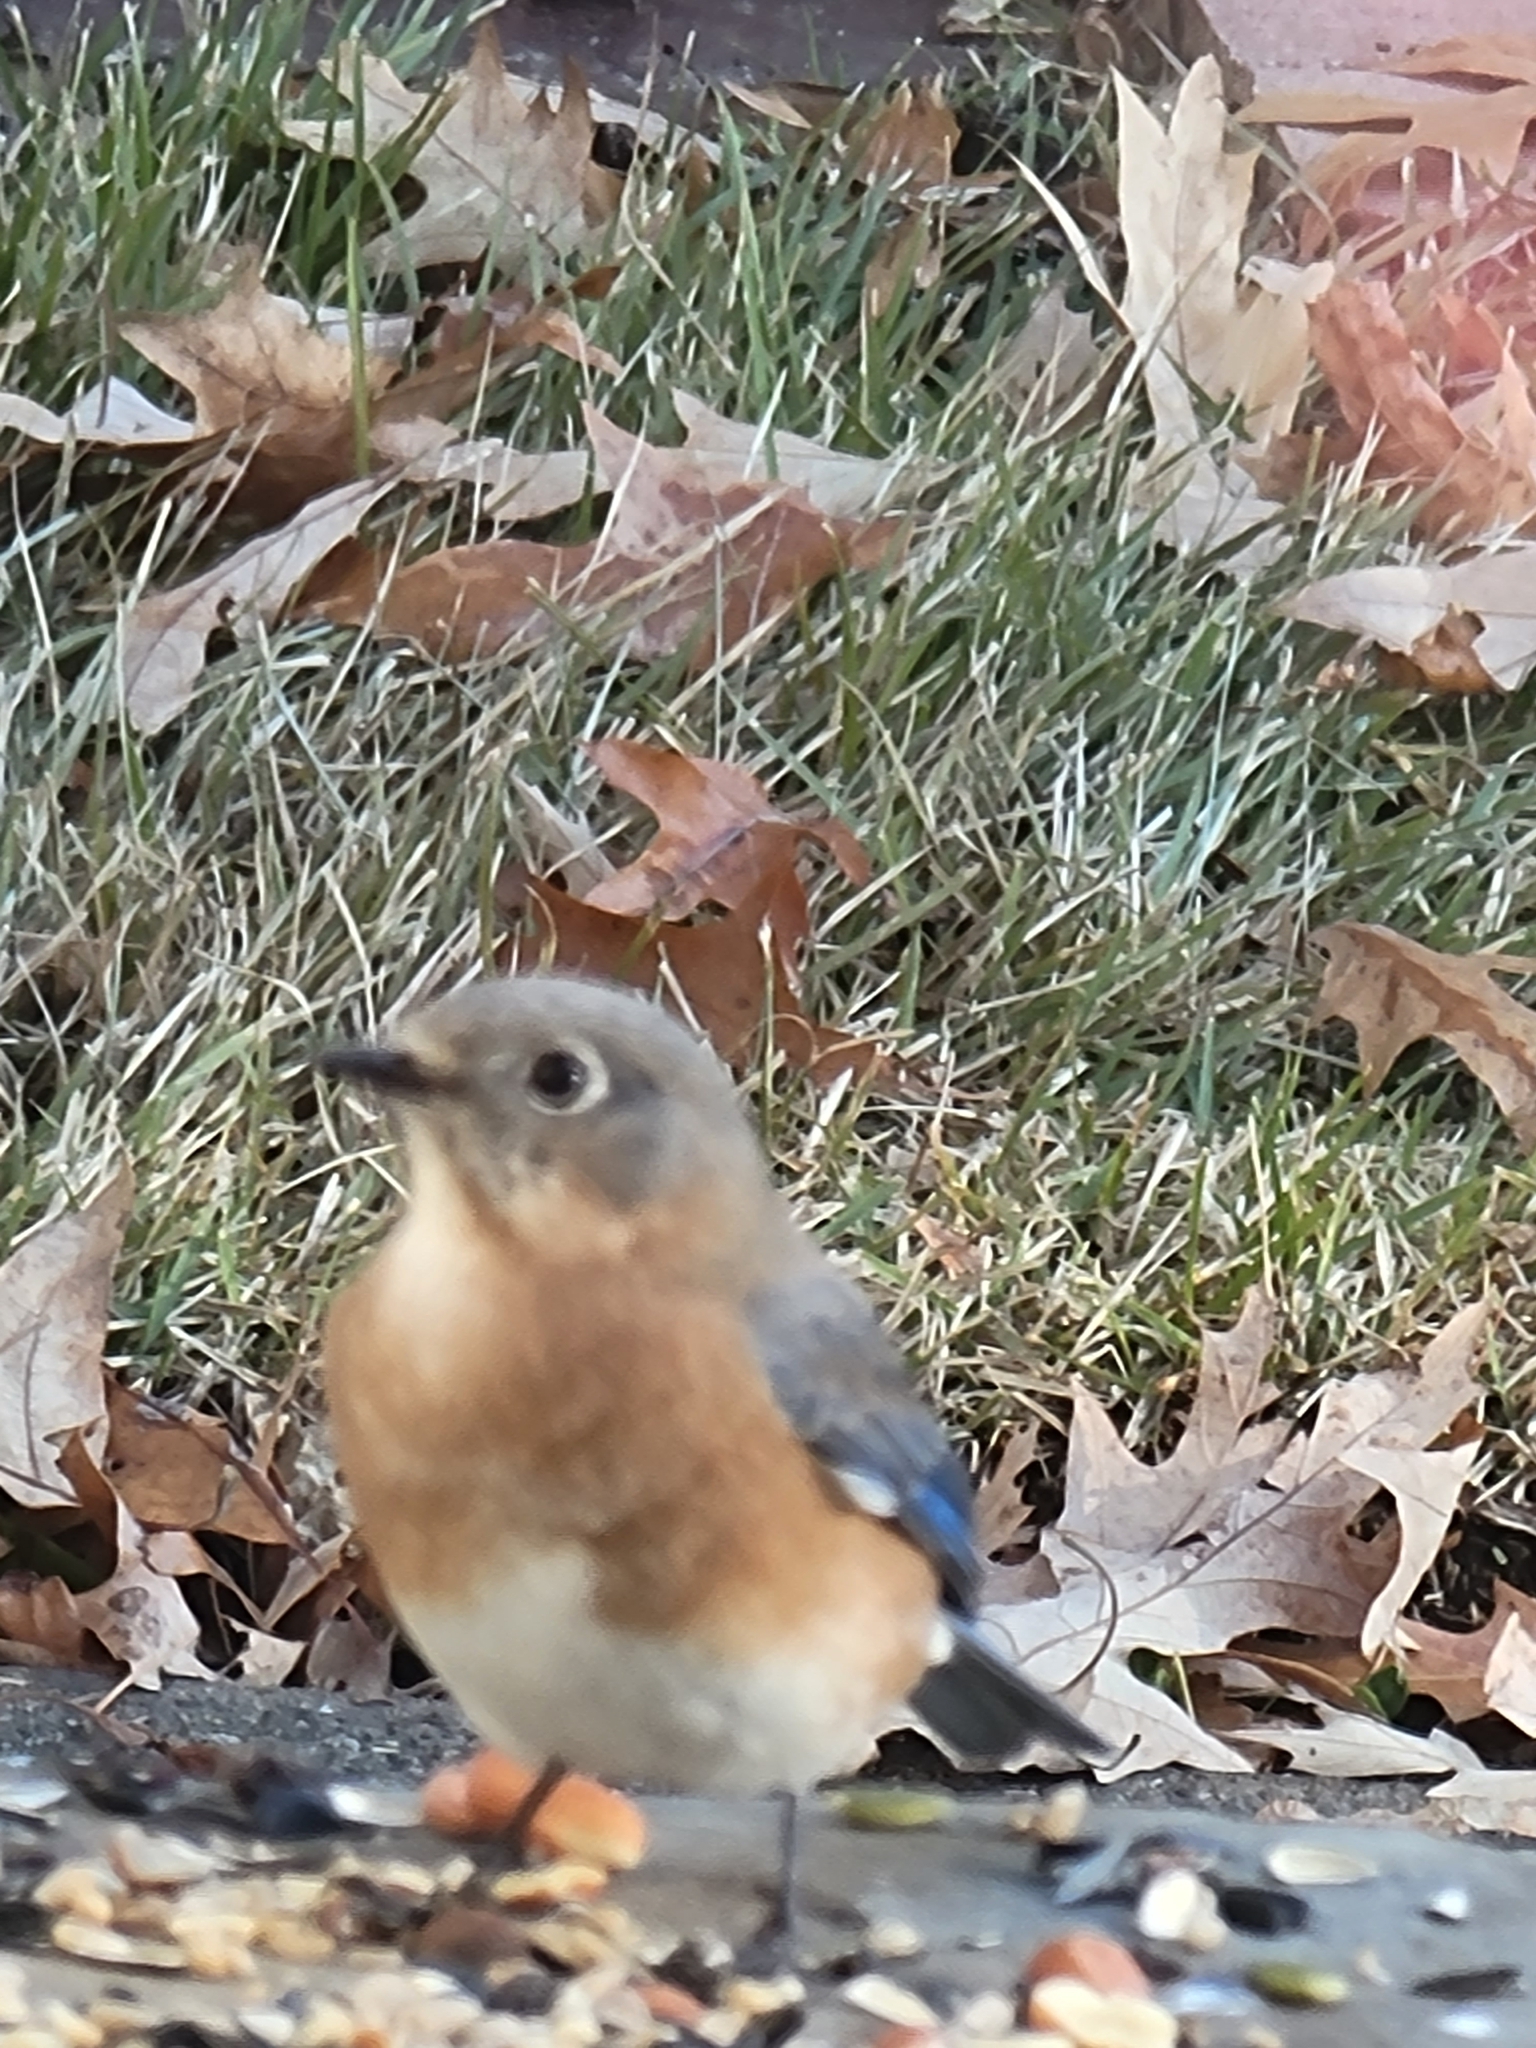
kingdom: Animalia
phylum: Chordata
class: Aves
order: Passeriformes
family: Turdidae
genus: Sialia
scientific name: Sialia sialis
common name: Eastern bluebird
